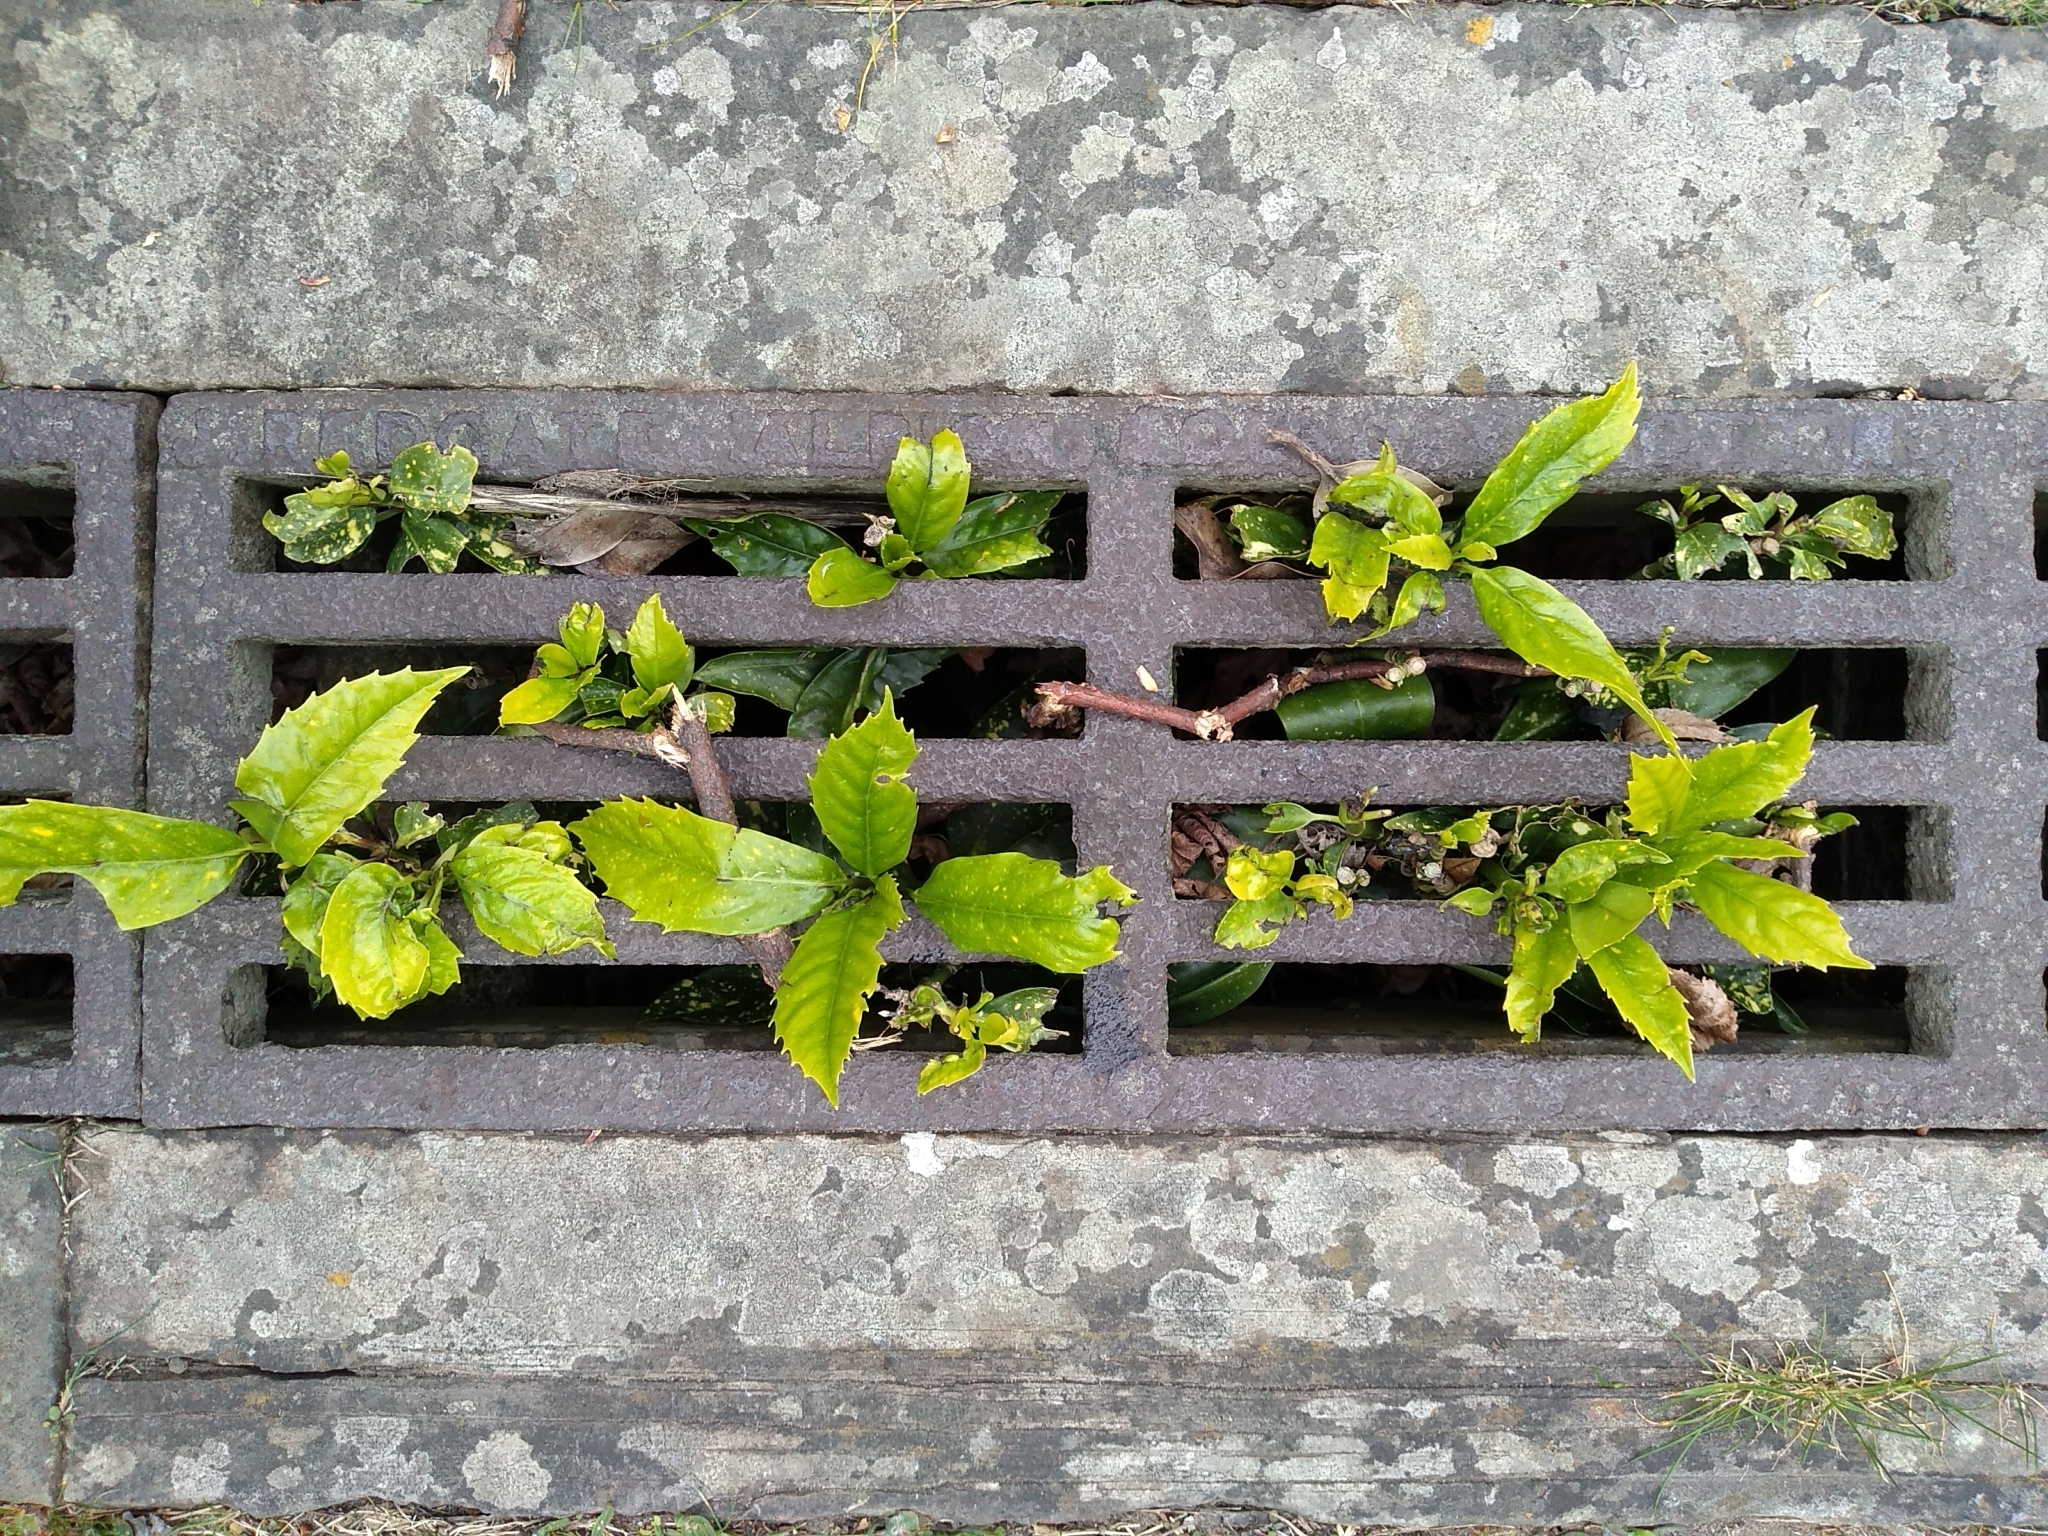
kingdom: Plantae
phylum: Tracheophyta
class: Magnoliopsida
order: Garryales
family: Garryaceae
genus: Aucuba
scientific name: Aucuba japonica
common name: Spotted-laurel
